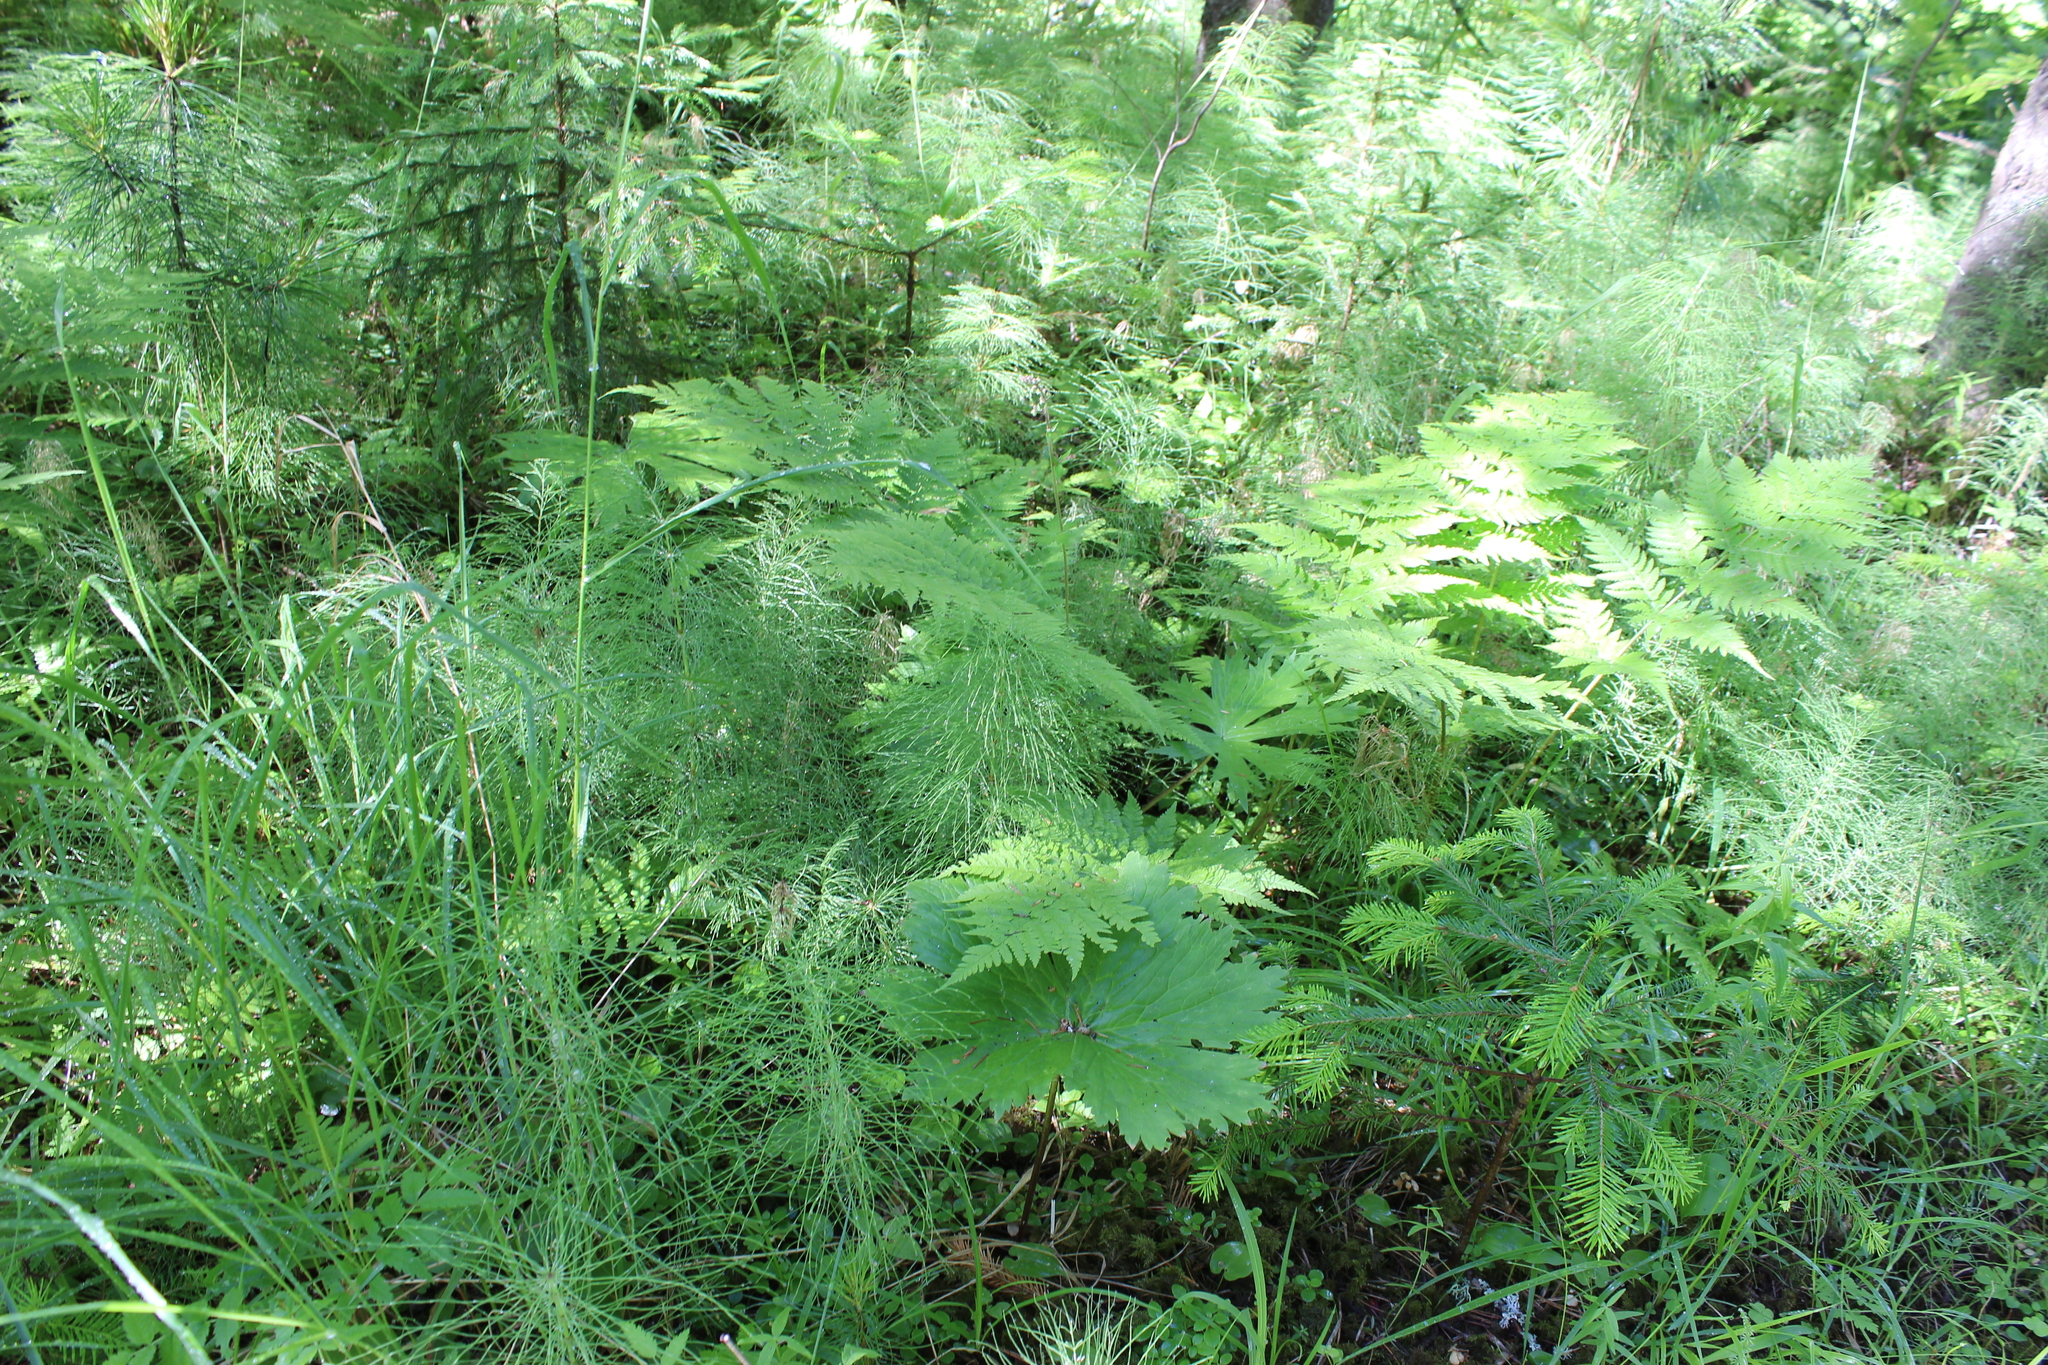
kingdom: Plantae
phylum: Tracheophyta
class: Magnoliopsida
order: Ranunculales
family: Ranunculaceae
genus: Aconitum
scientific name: Aconitum septentrionale
